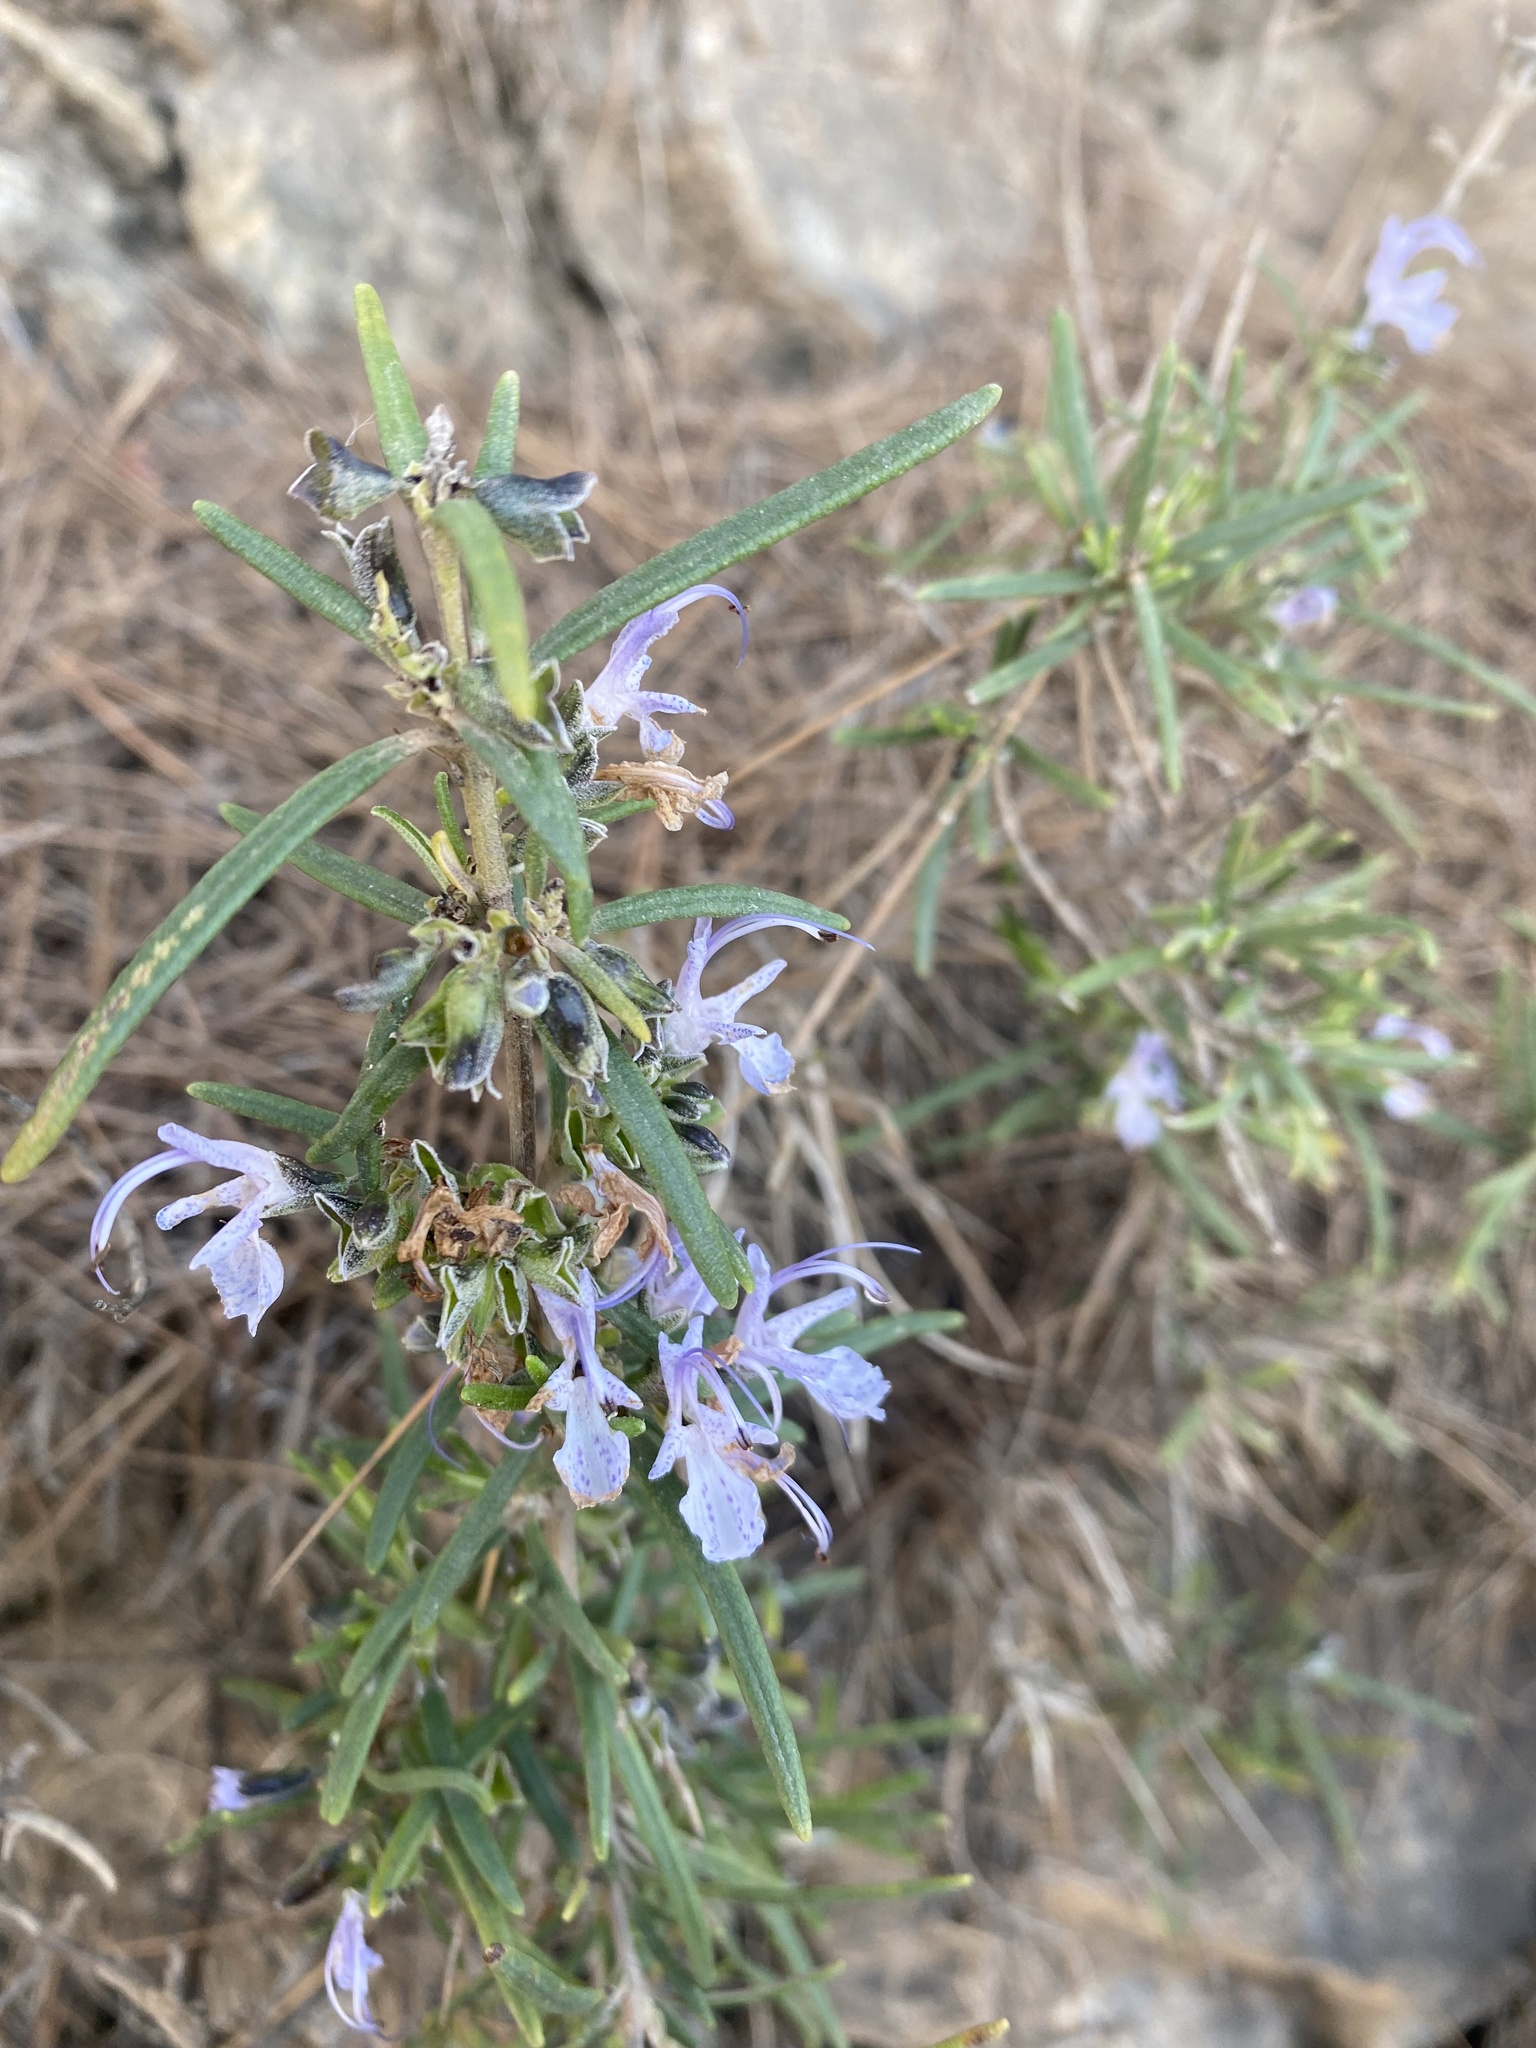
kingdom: Plantae
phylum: Tracheophyta
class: Magnoliopsida
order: Lamiales
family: Lamiaceae
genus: Salvia
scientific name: Salvia rosmarinus
